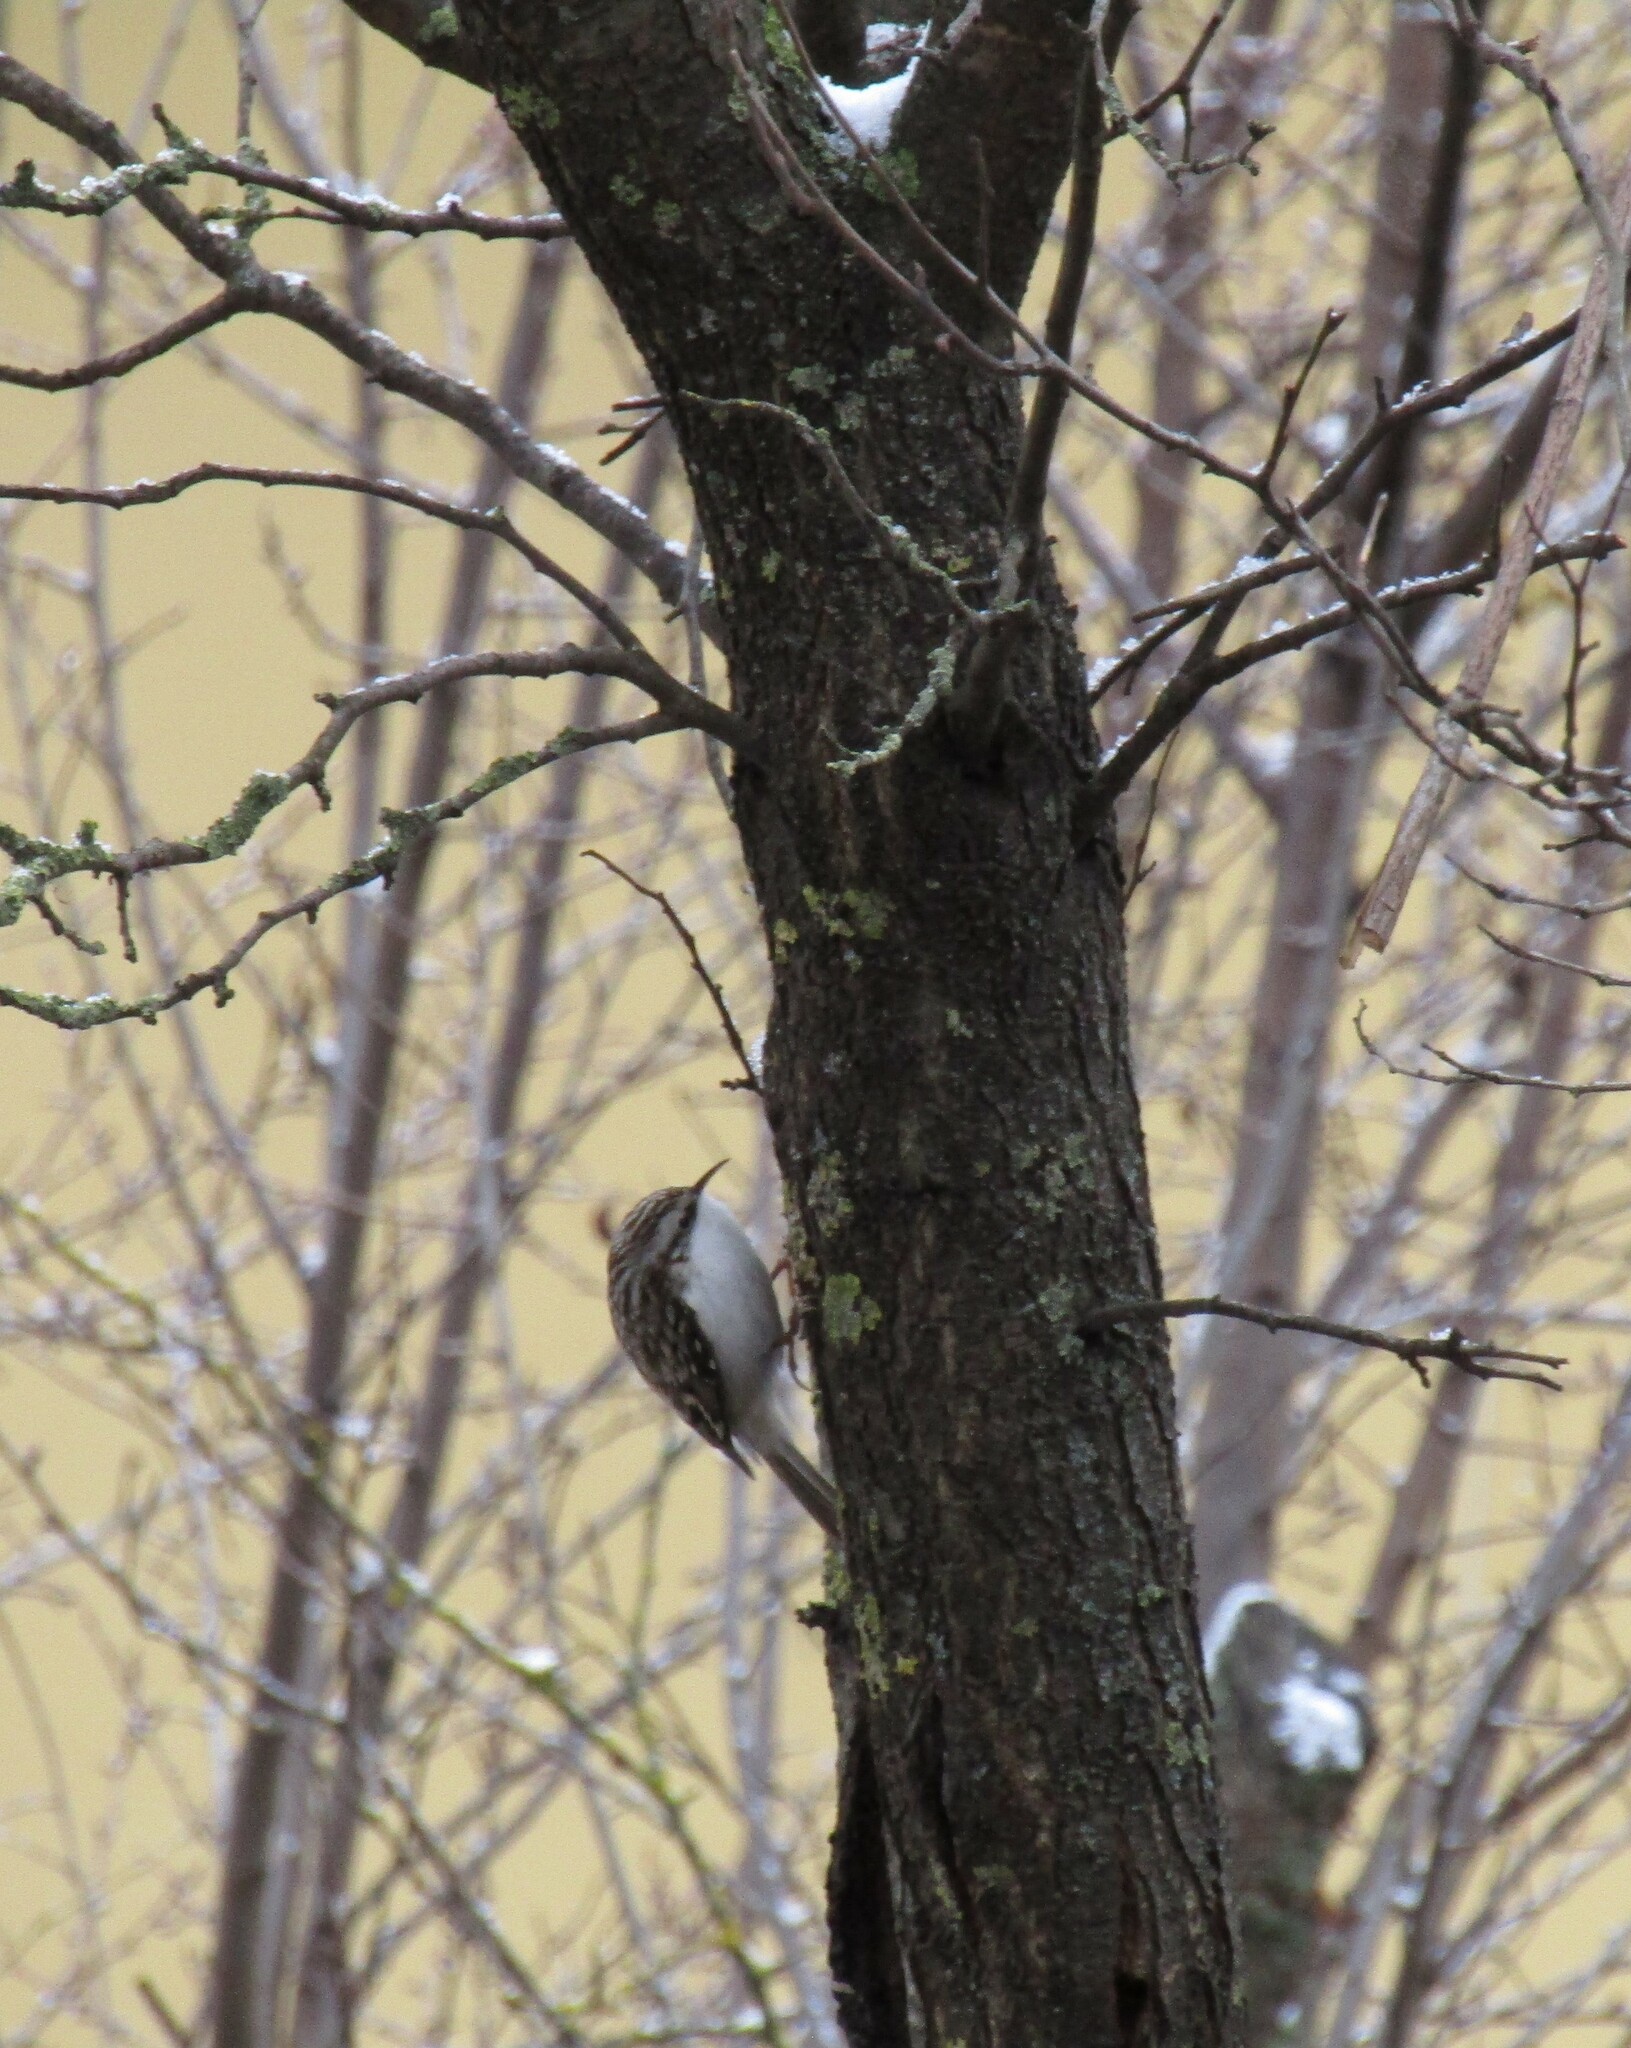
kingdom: Animalia
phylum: Chordata
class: Aves
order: Passeriformes
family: Certhiidae
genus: Certhia
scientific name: Certhia familiaris
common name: Eurasian treecreeper
